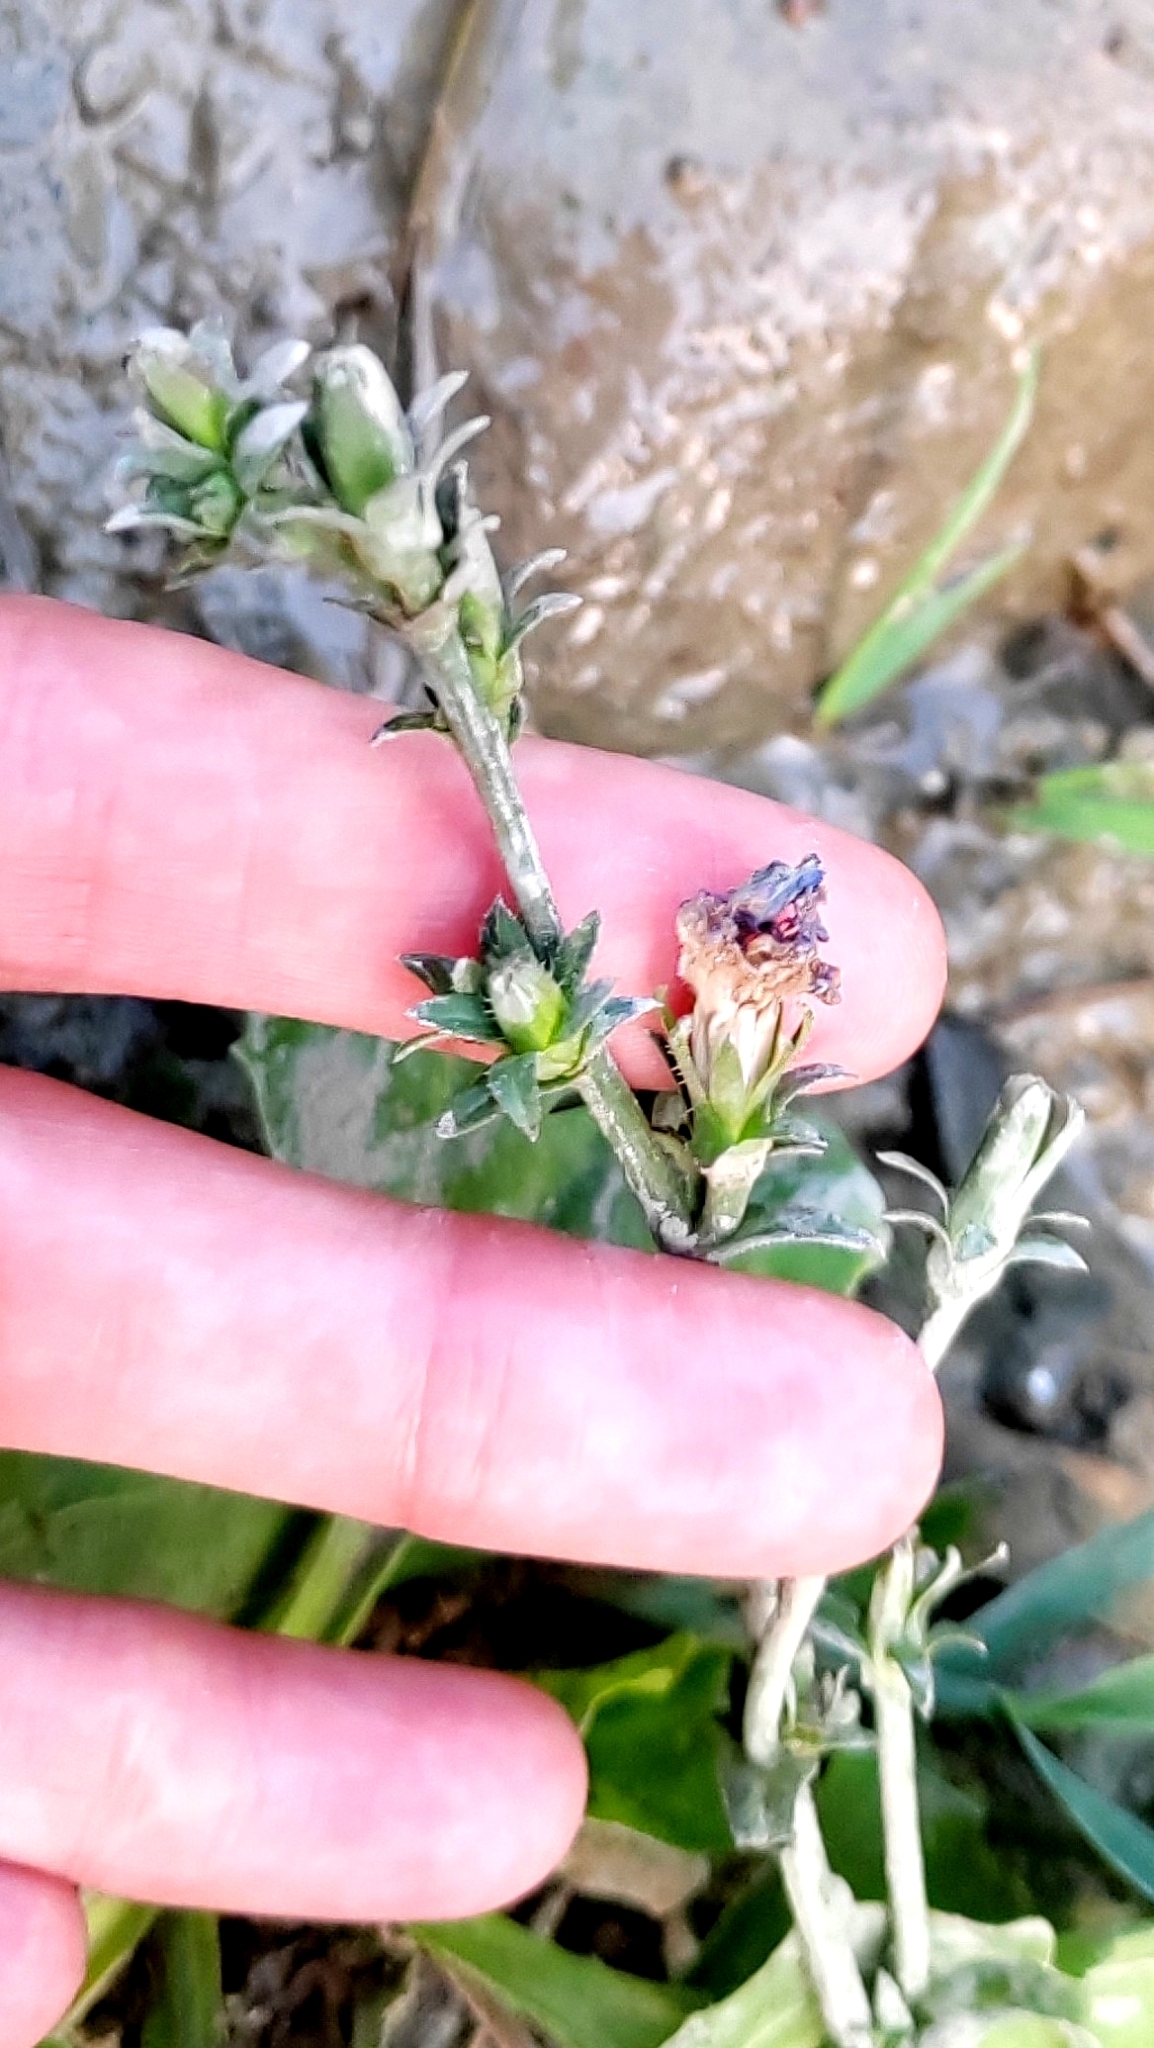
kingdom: Plantae
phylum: Tracheophyta
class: Magnoliopsida
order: Asterales
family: Asteraceae
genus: Cichorium
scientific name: Cichorium intybus
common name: Chicory
